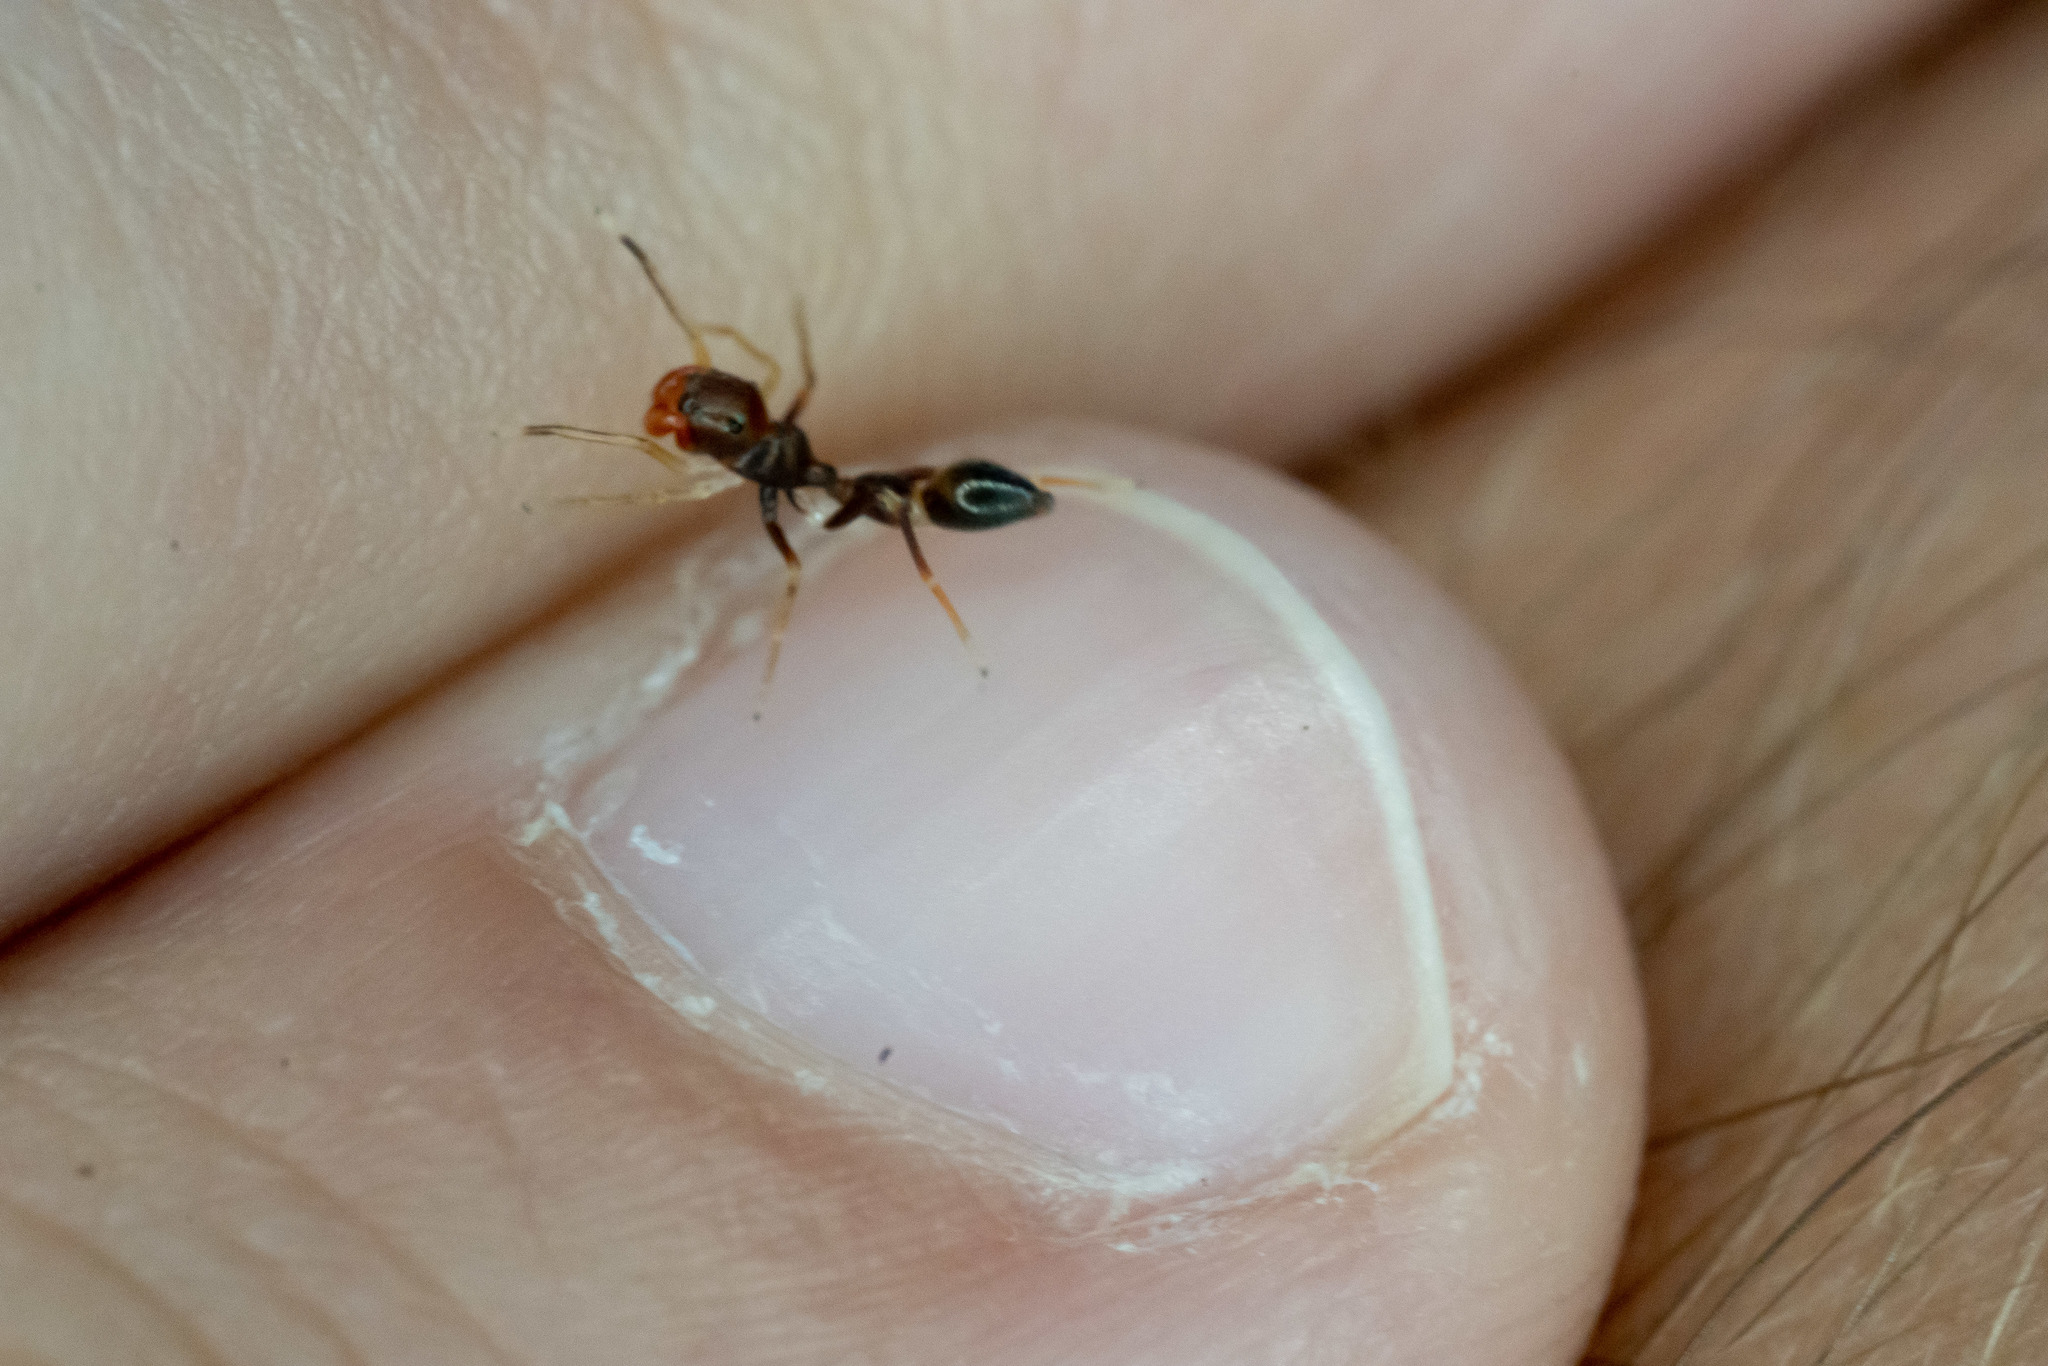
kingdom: Animalia
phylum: Arthropoda
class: Arachnida
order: Araneae
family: Salticidae
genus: Synemosyna
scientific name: Synemosyna formica
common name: Slender ant-mimic jumping spider
